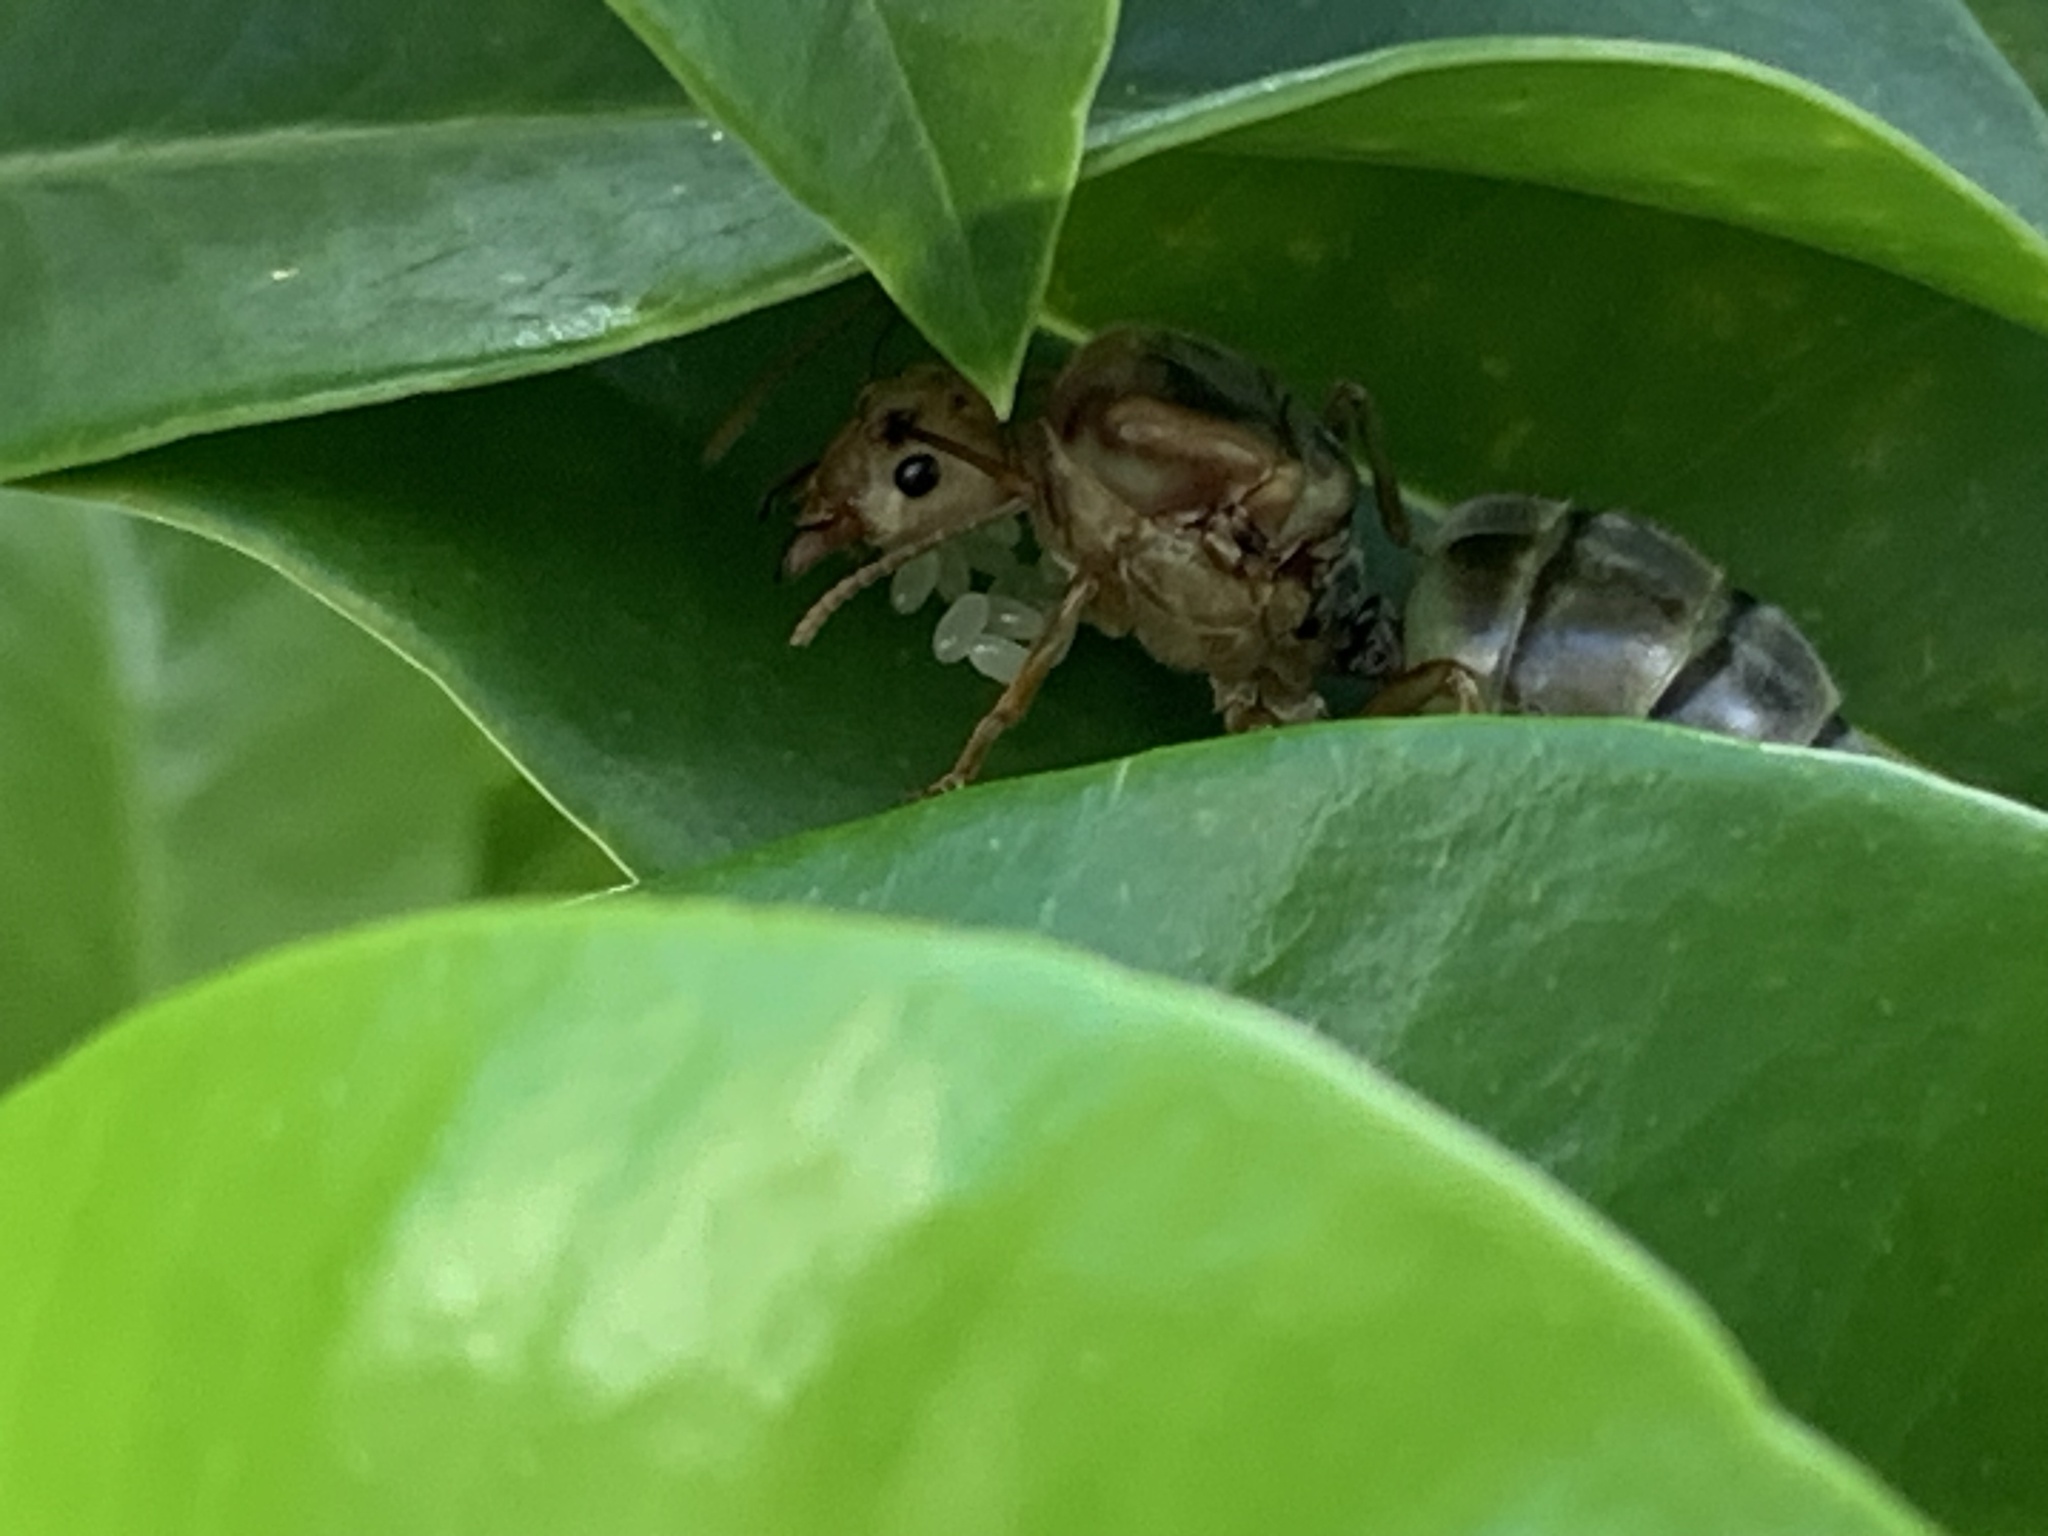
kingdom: Animalia
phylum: Arthropoda
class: Insecta
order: Hymenoptera
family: Formicidae
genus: Oecophylla
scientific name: Oecophylla smaragdina
